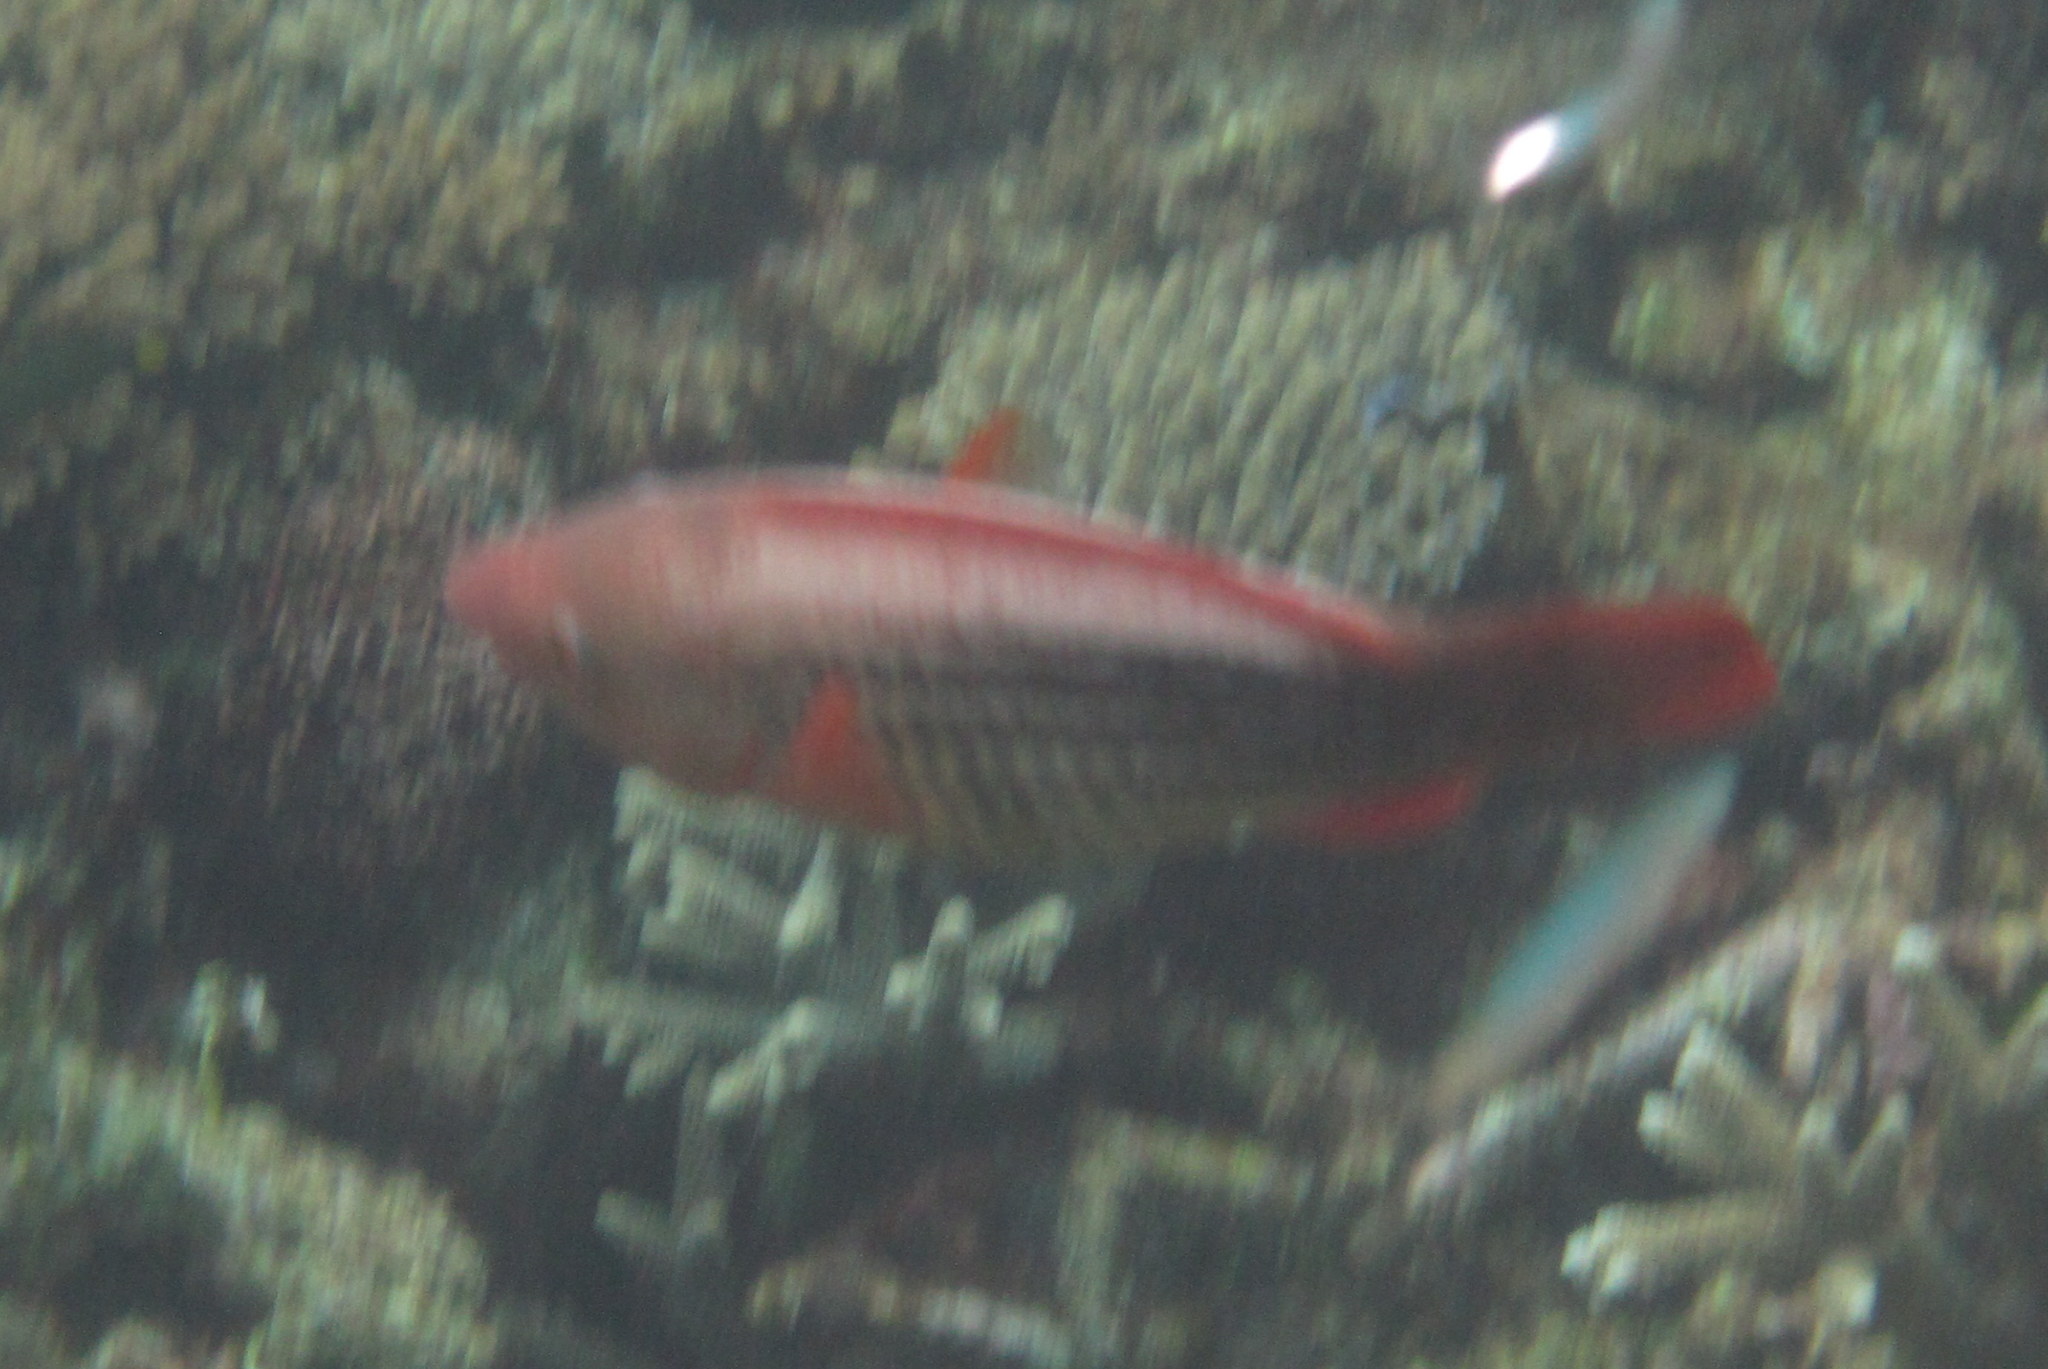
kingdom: Animalia
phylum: Chordata
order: Perciformes
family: Scaridae
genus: Scarus
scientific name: Scarus frenatus
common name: Bridled parrotfish
